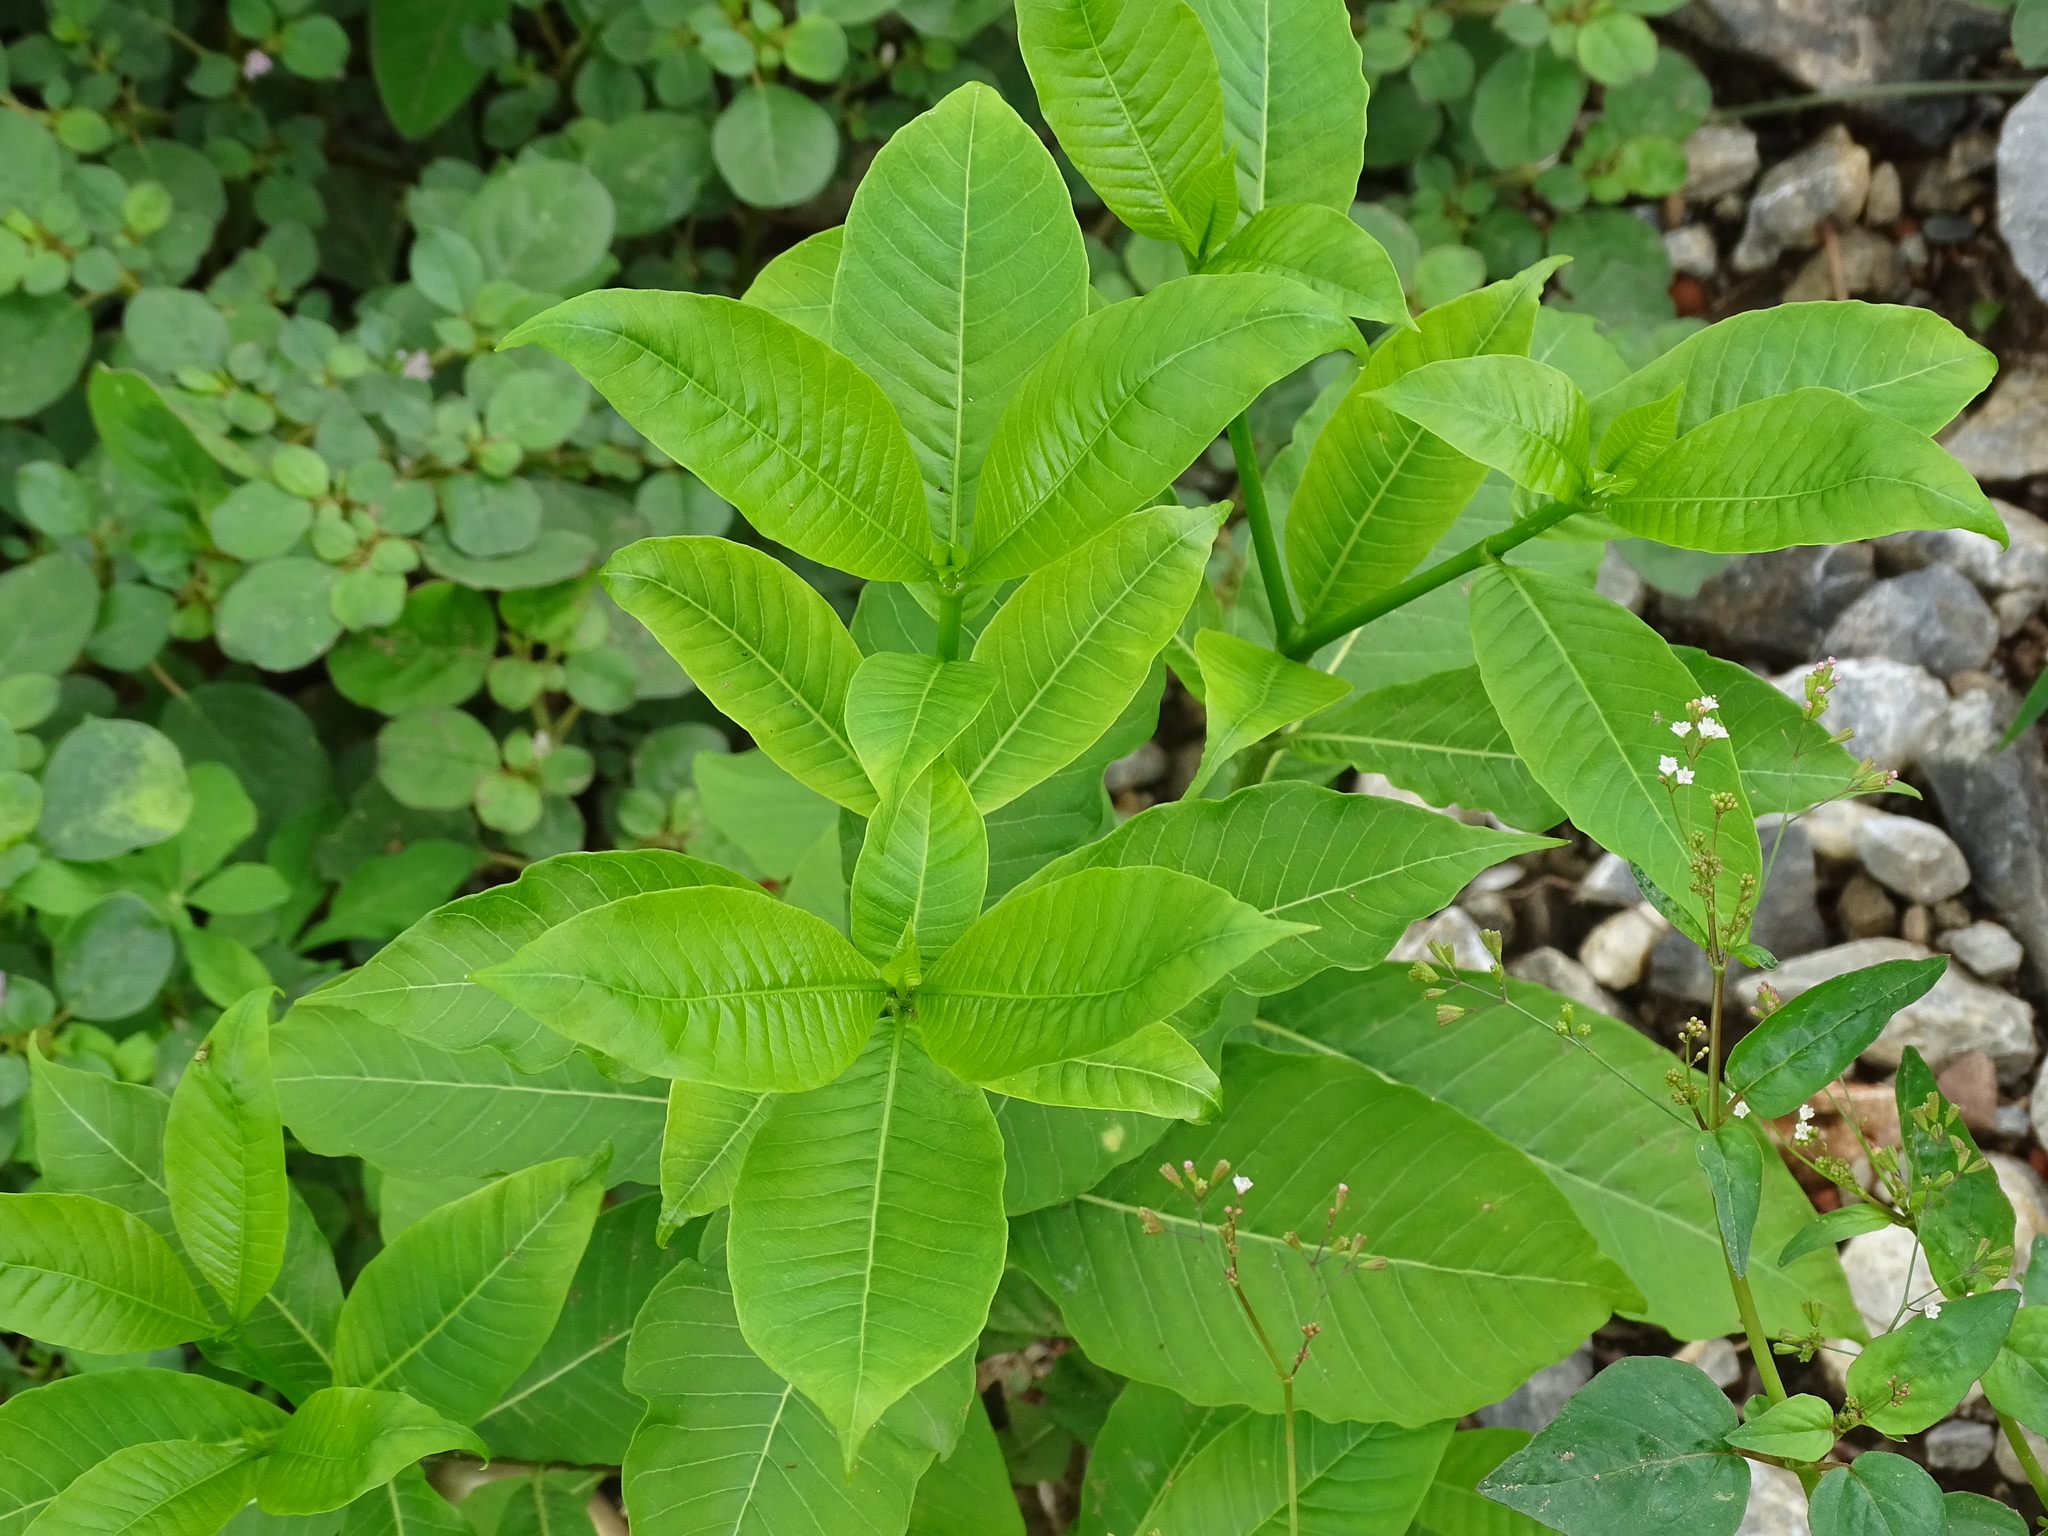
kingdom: Plantae
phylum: Tracheophyta
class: Magnoliopsida
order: Gentianales
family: Apocynaceae
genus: Rauvolfia
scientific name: Rauvolfia tetraphylla
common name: Four-leaf devil-pepper
